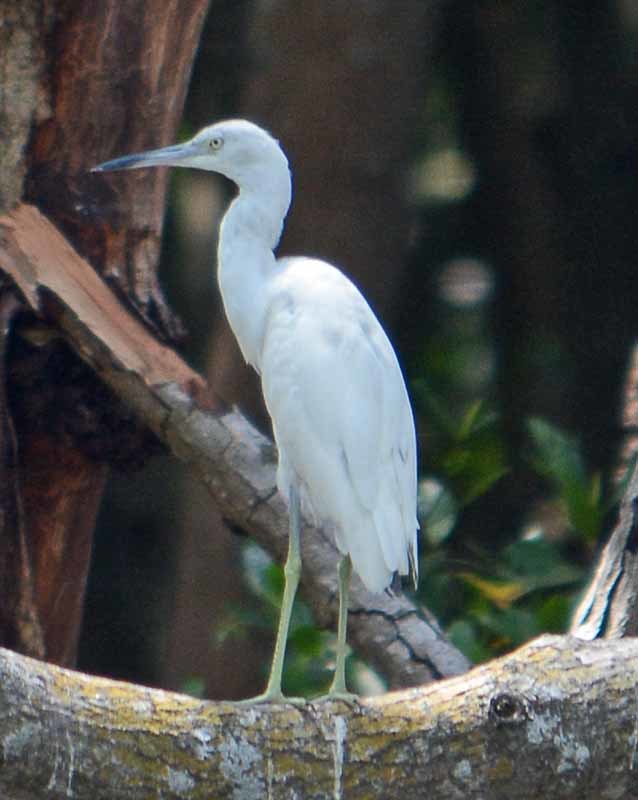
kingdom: Animalia
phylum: Chordata
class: Aves
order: Pelecaniformes
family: Ardeidae
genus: Egretta
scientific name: Egretta caerulea
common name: Little blue heron
